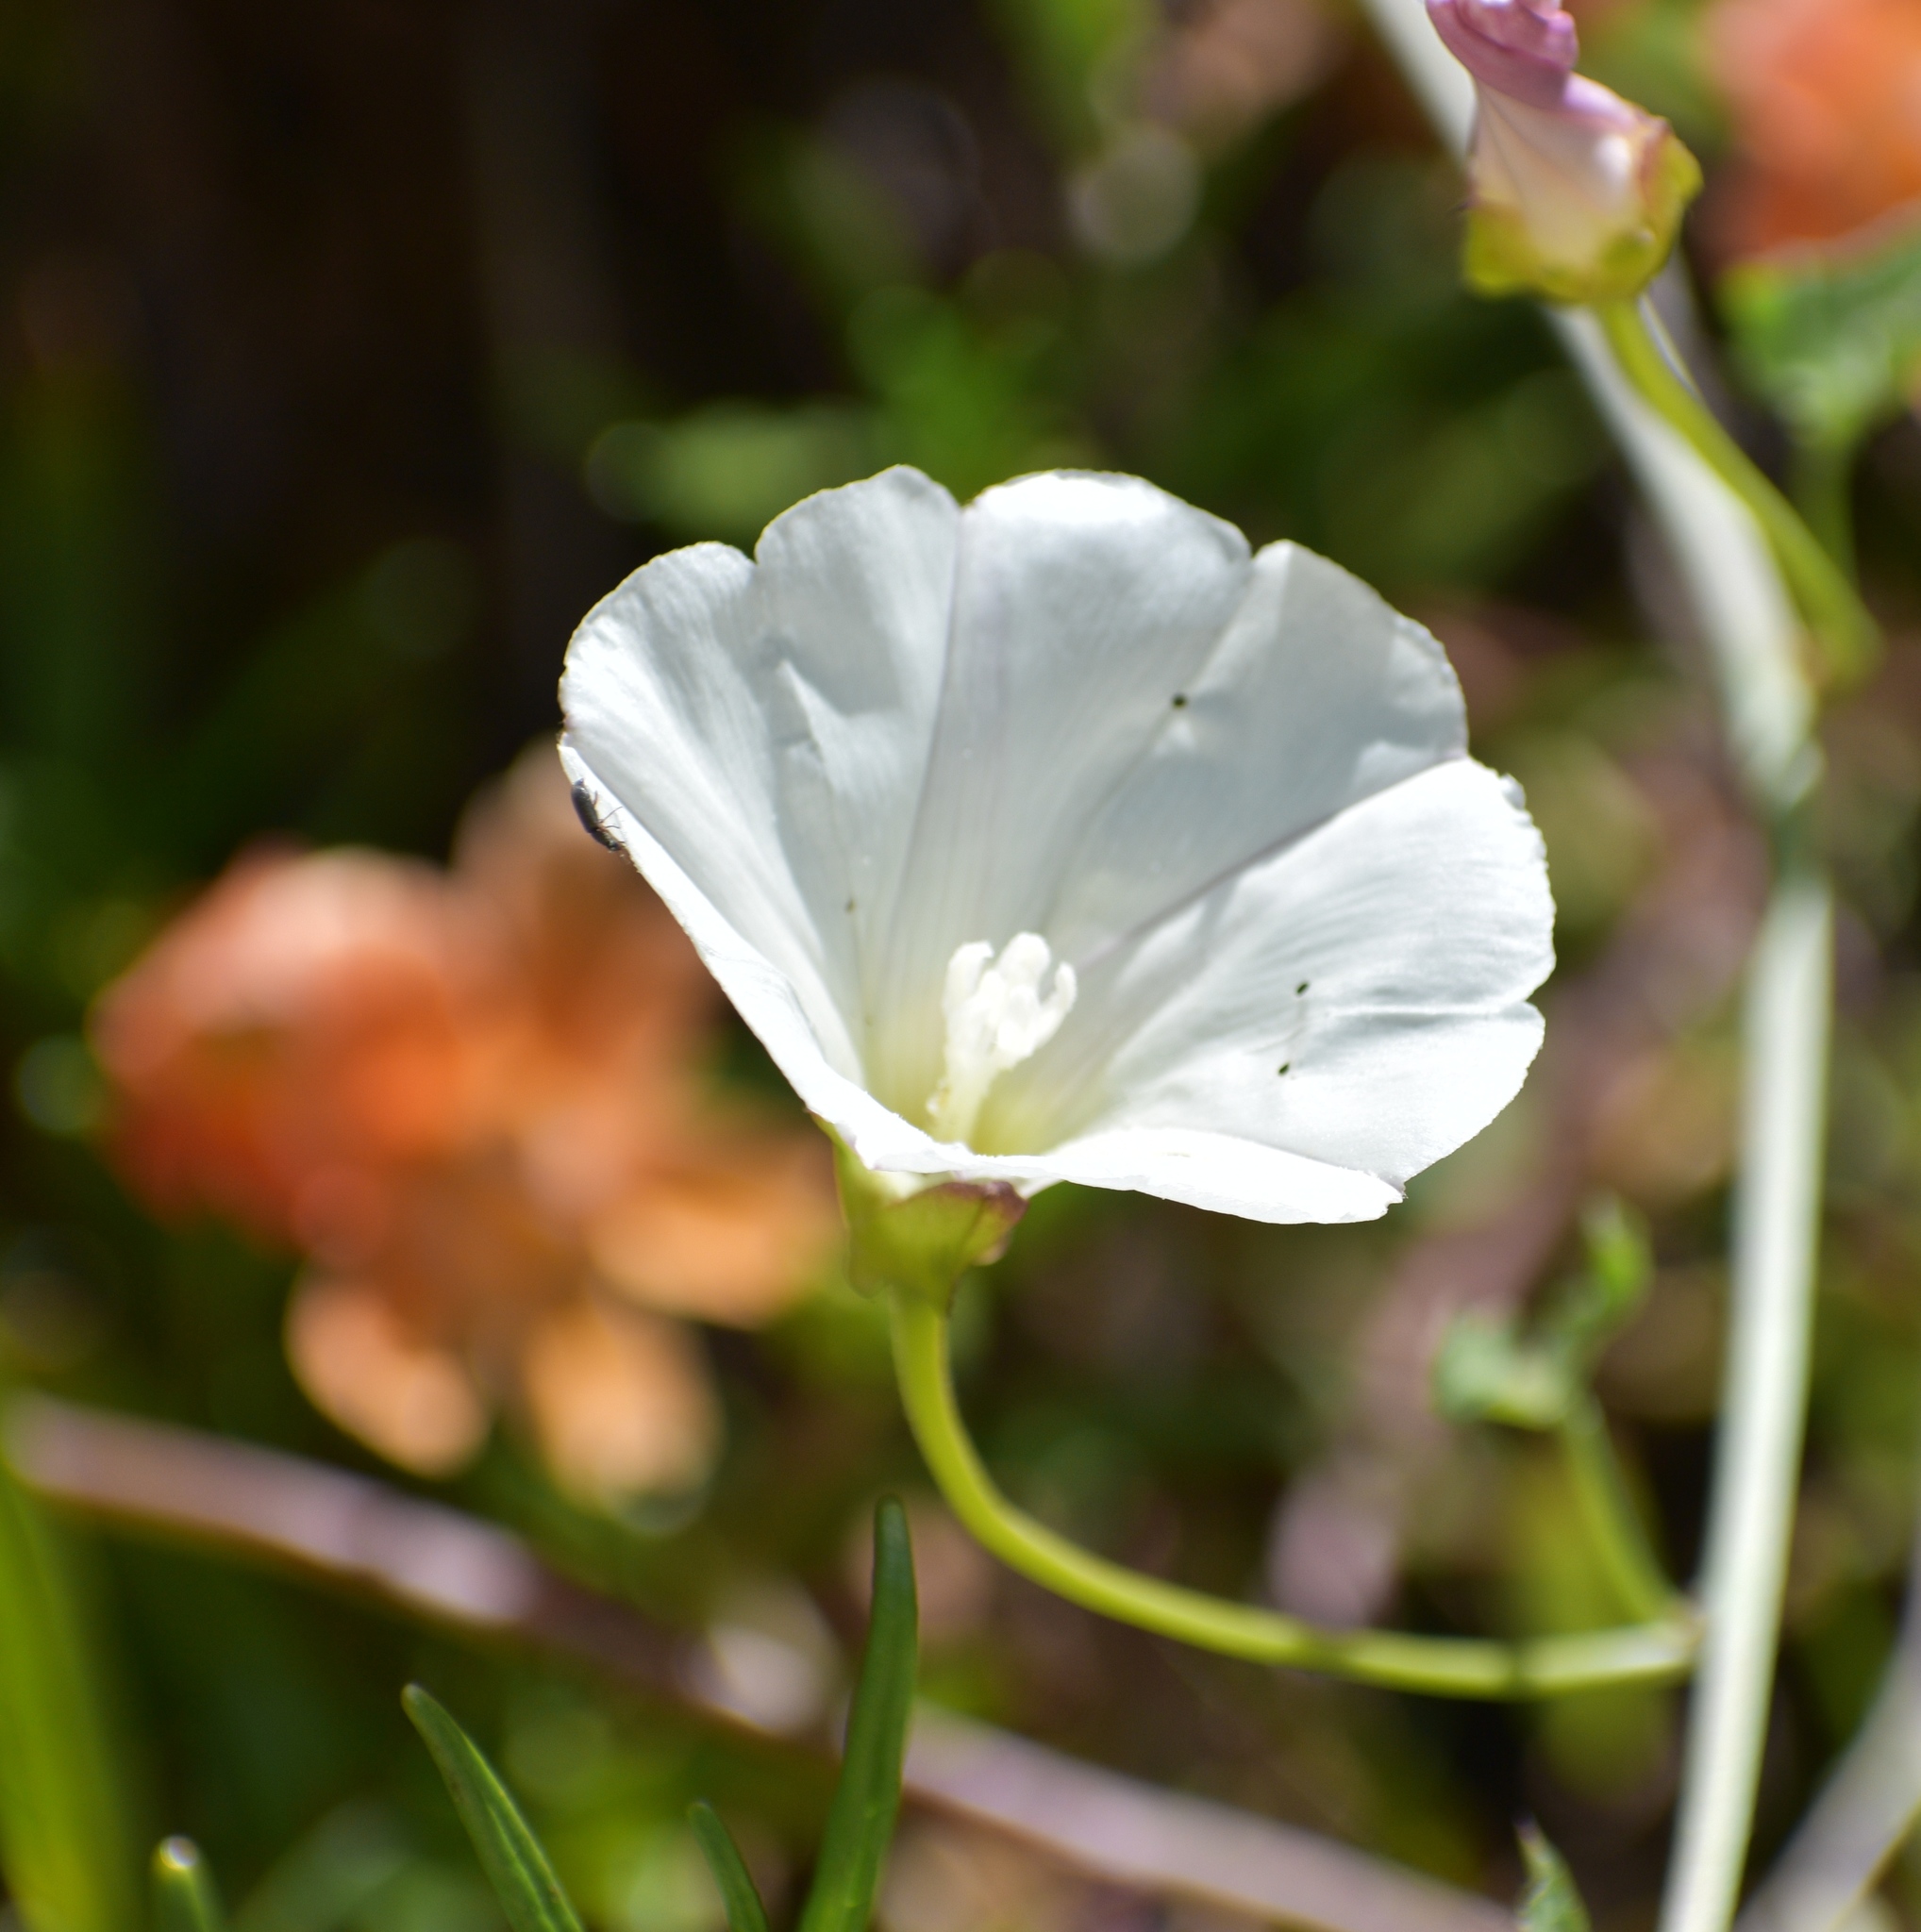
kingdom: Plantae
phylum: Tracheophyta
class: Magnoliopsida
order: Solanales
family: Convolvulaceae
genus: Calystegia
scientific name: Calystegia macrostegia
